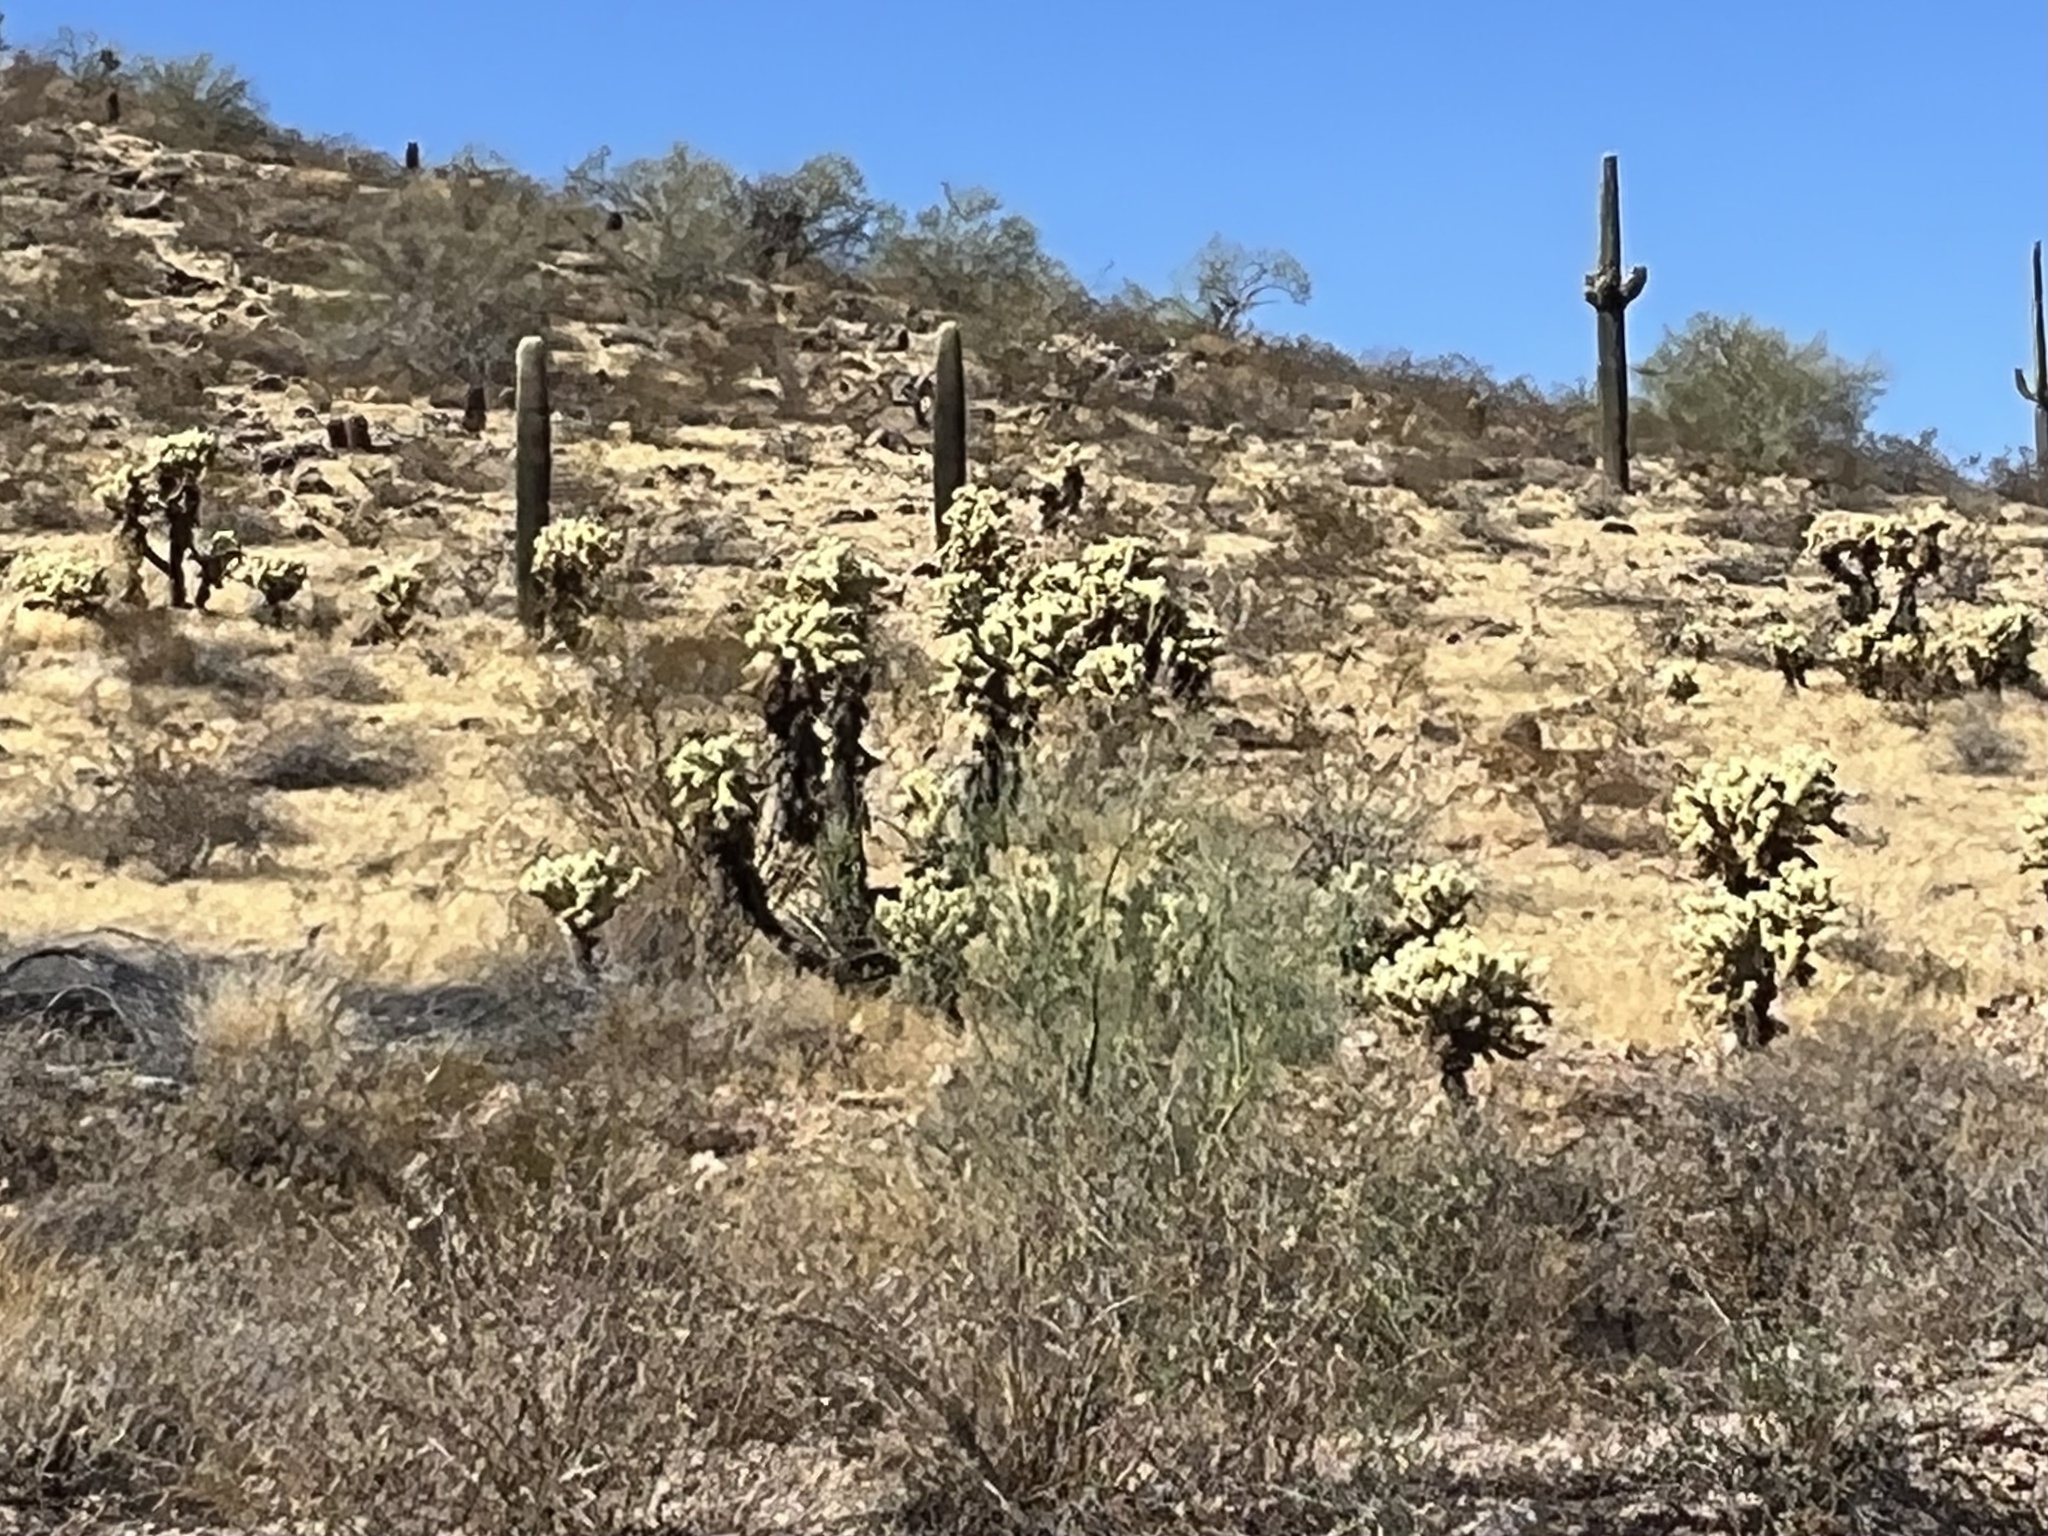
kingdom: Plantae
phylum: Tracheophyta
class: Magnoliopsida
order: Caryophyllales
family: Cactaceae
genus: Cylindropuntia
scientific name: Cylindropuntia fosbergii
